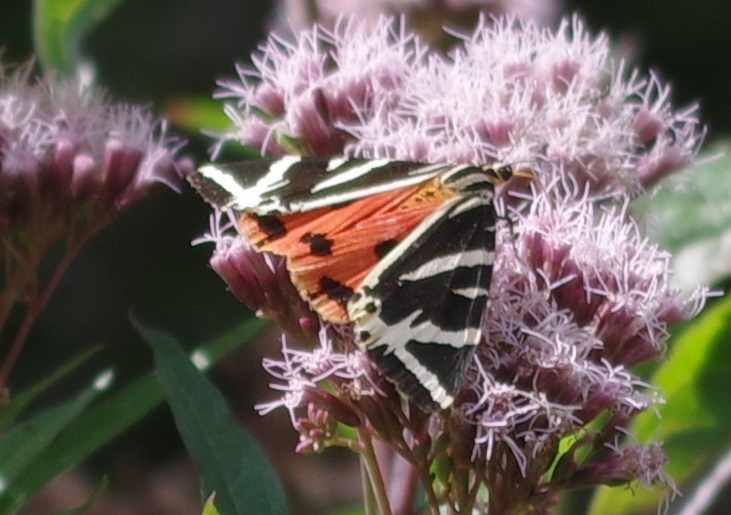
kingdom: Animalia
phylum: Arthropoda
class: Insecta
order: Lepidoptera
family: Erebidae
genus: Euplagia
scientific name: Euplagia quadripunctaria
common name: Jersey tiger
